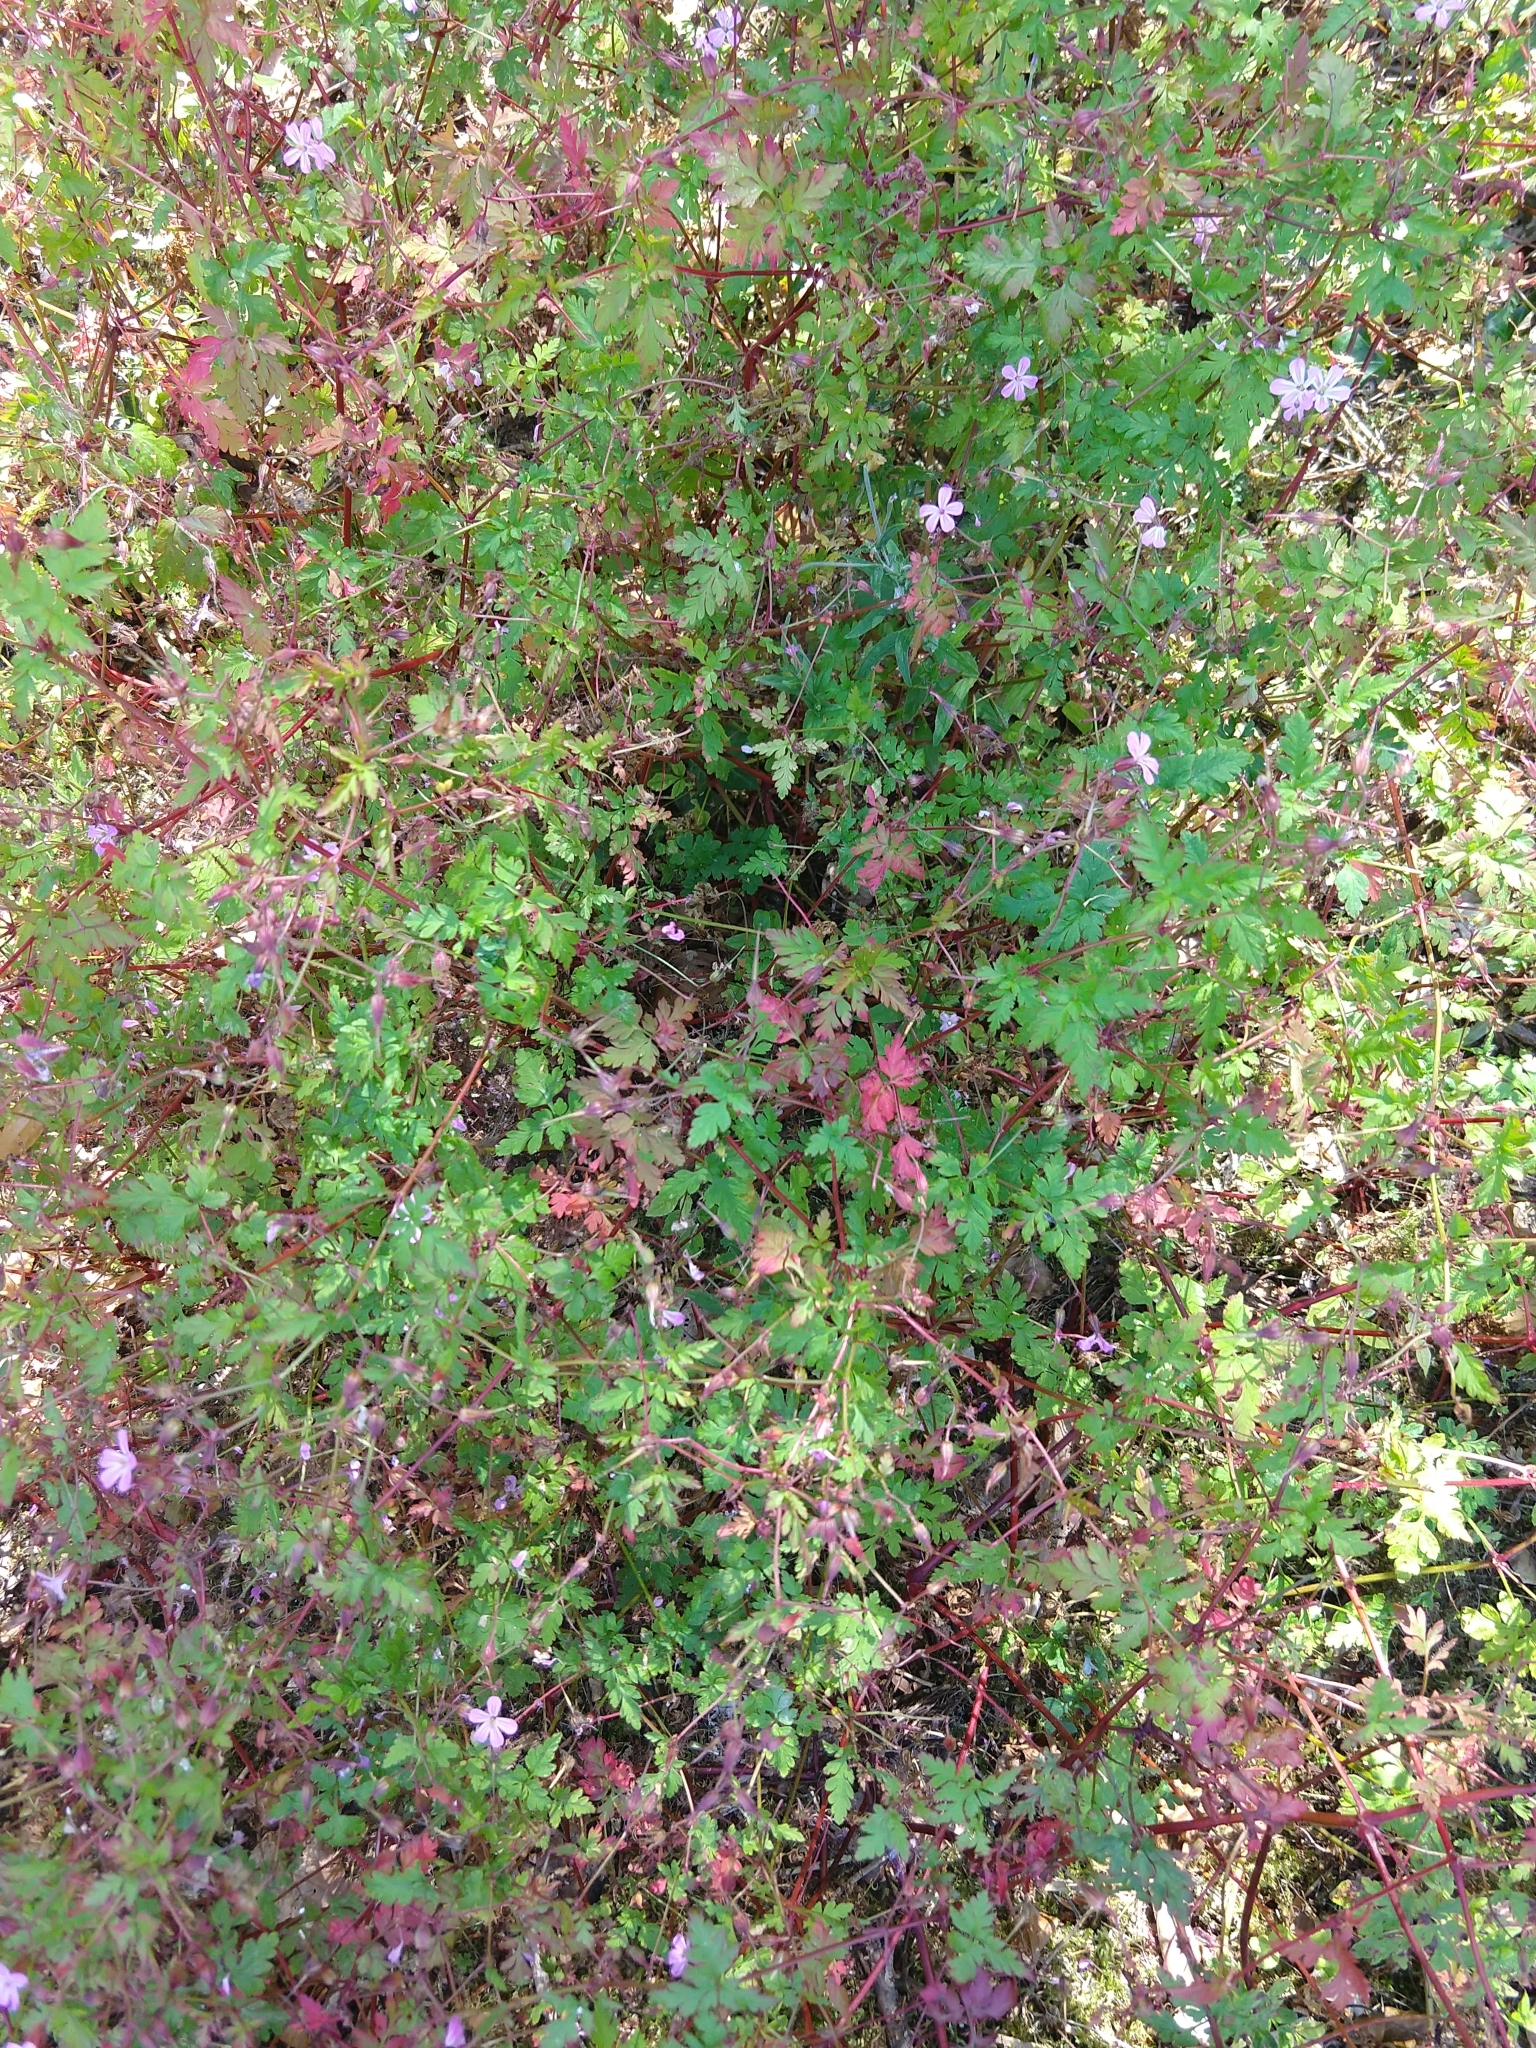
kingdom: Plantae
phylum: Tracheophyta
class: Magnoliopsida
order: Geraniales
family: Geraniaceae
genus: Geranium
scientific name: Geranium robertianum
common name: Herb-robert
